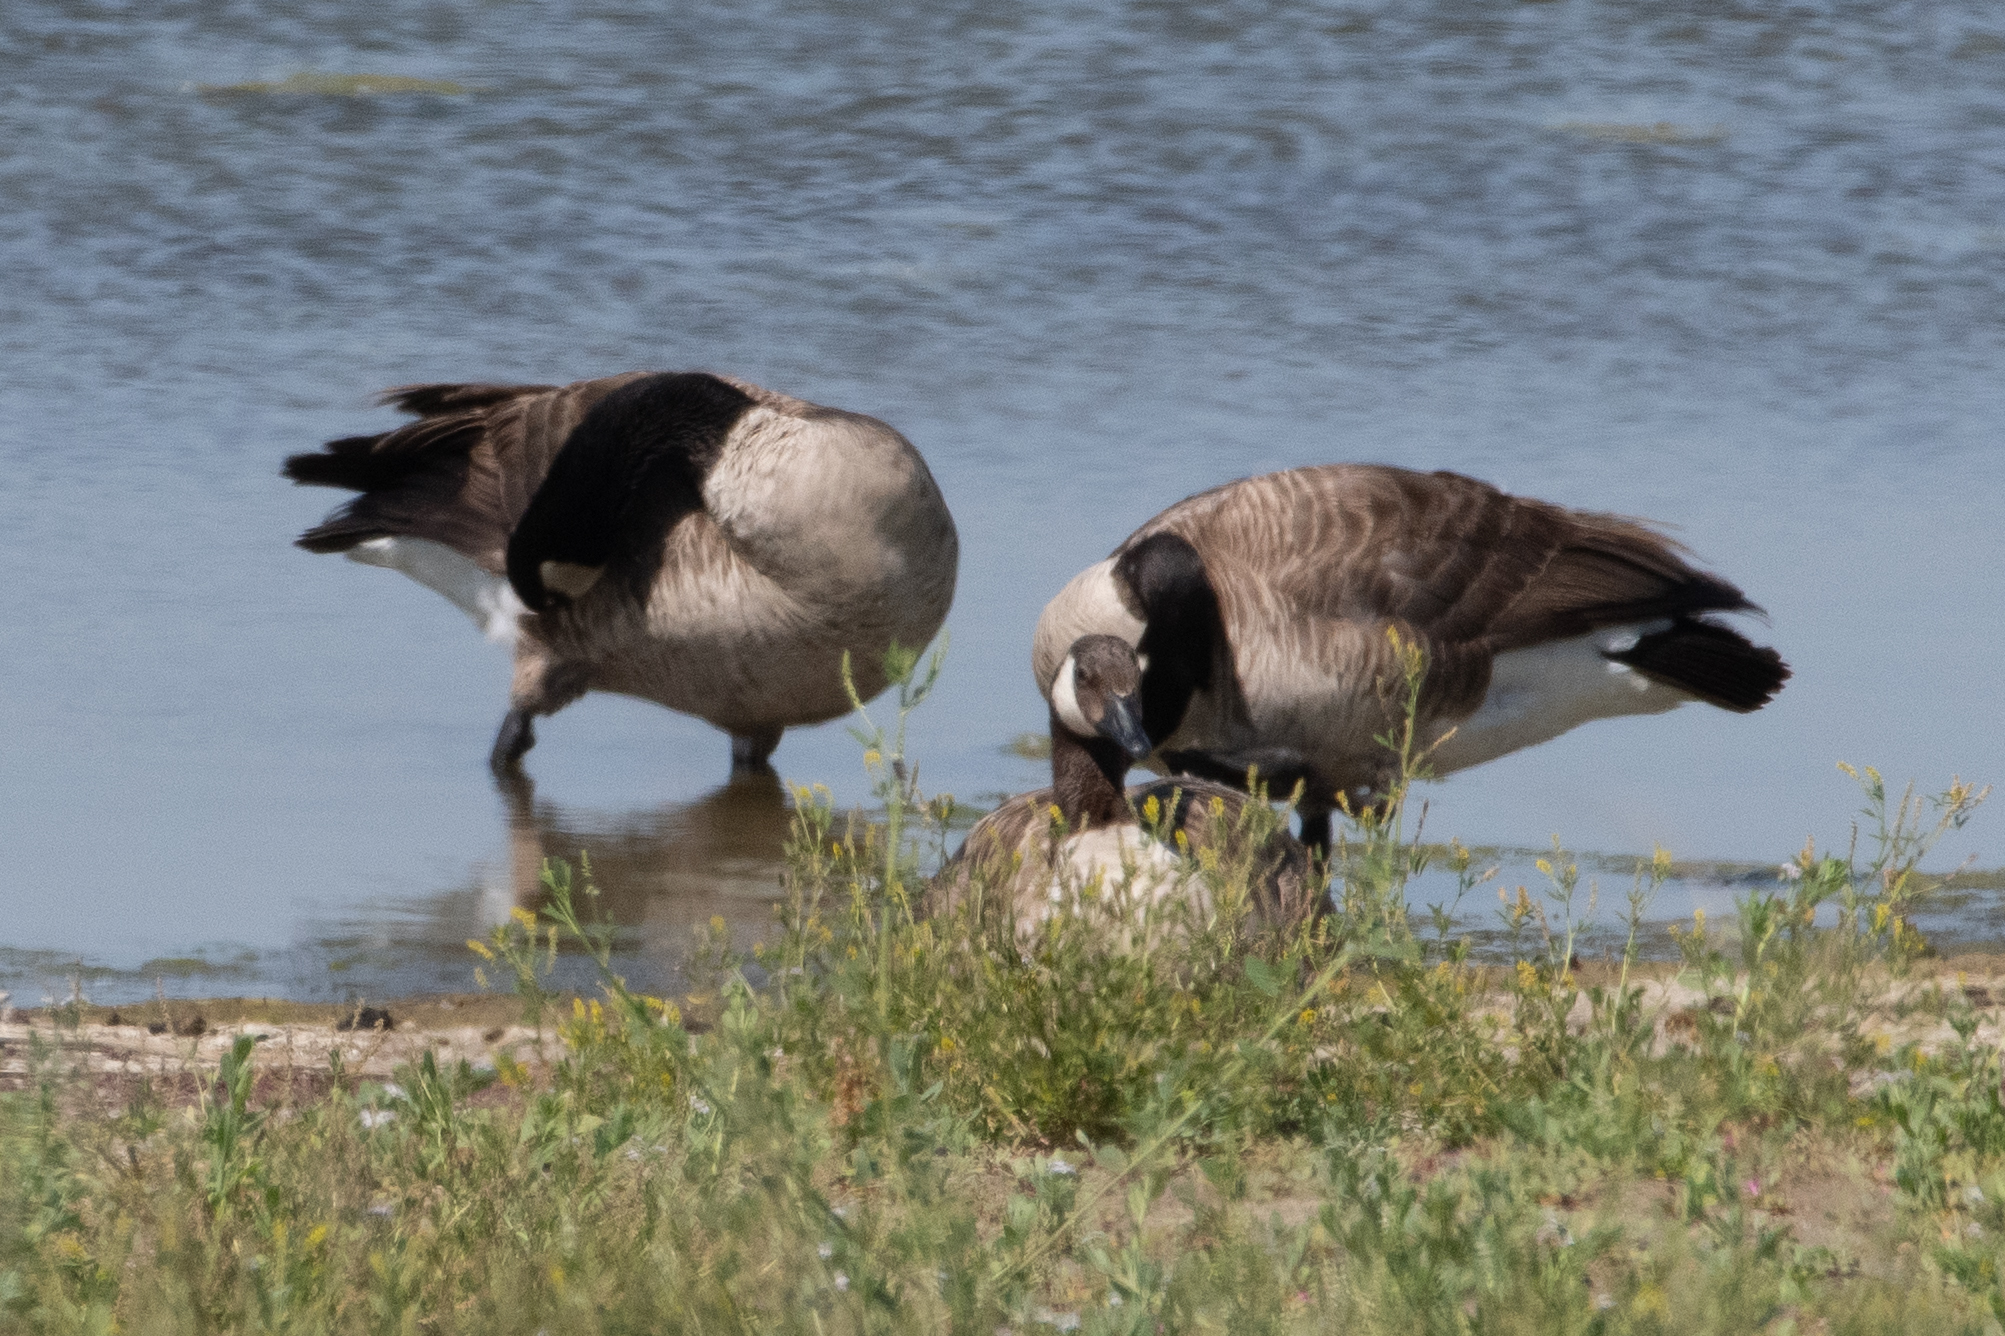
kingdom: Animalia
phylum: Chordata
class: Aves
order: Anseriformes
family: Anatidae
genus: Branta
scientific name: Branta canadensis
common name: Canada goose
